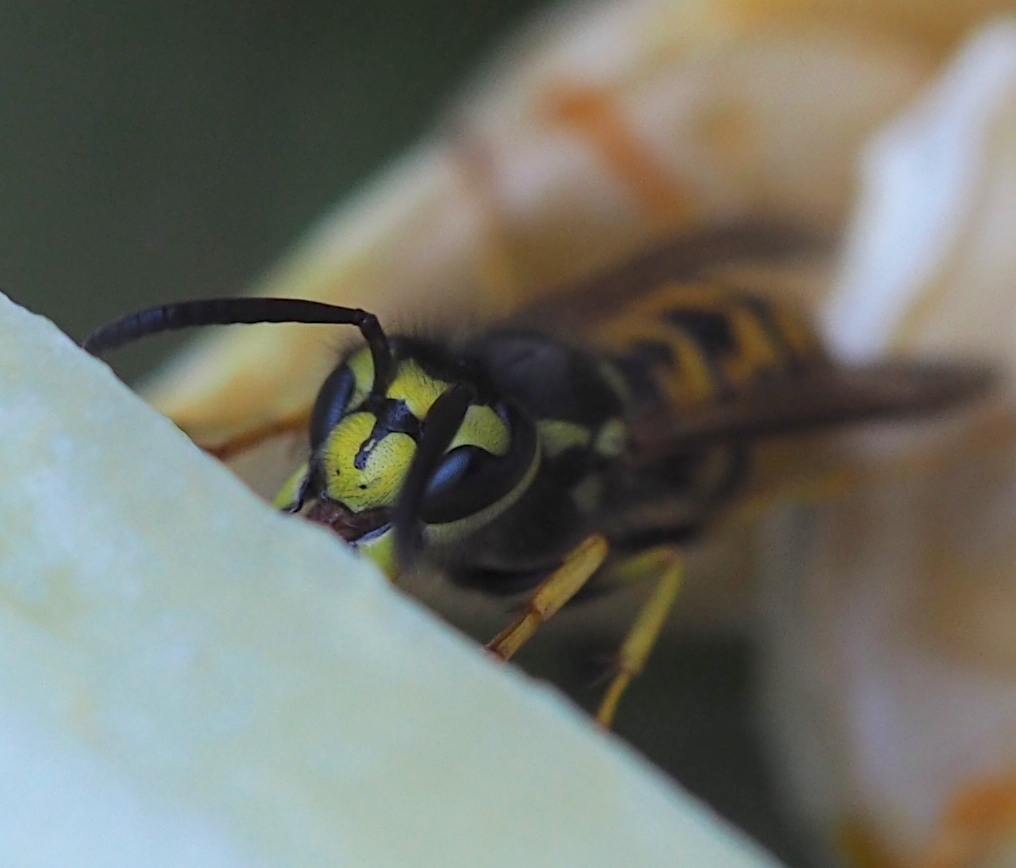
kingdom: Animalia
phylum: Arthropoda
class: Insecta
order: Hymenoptera
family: Vespidae
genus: Vespula
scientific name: Vespula germanica
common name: German wasp
